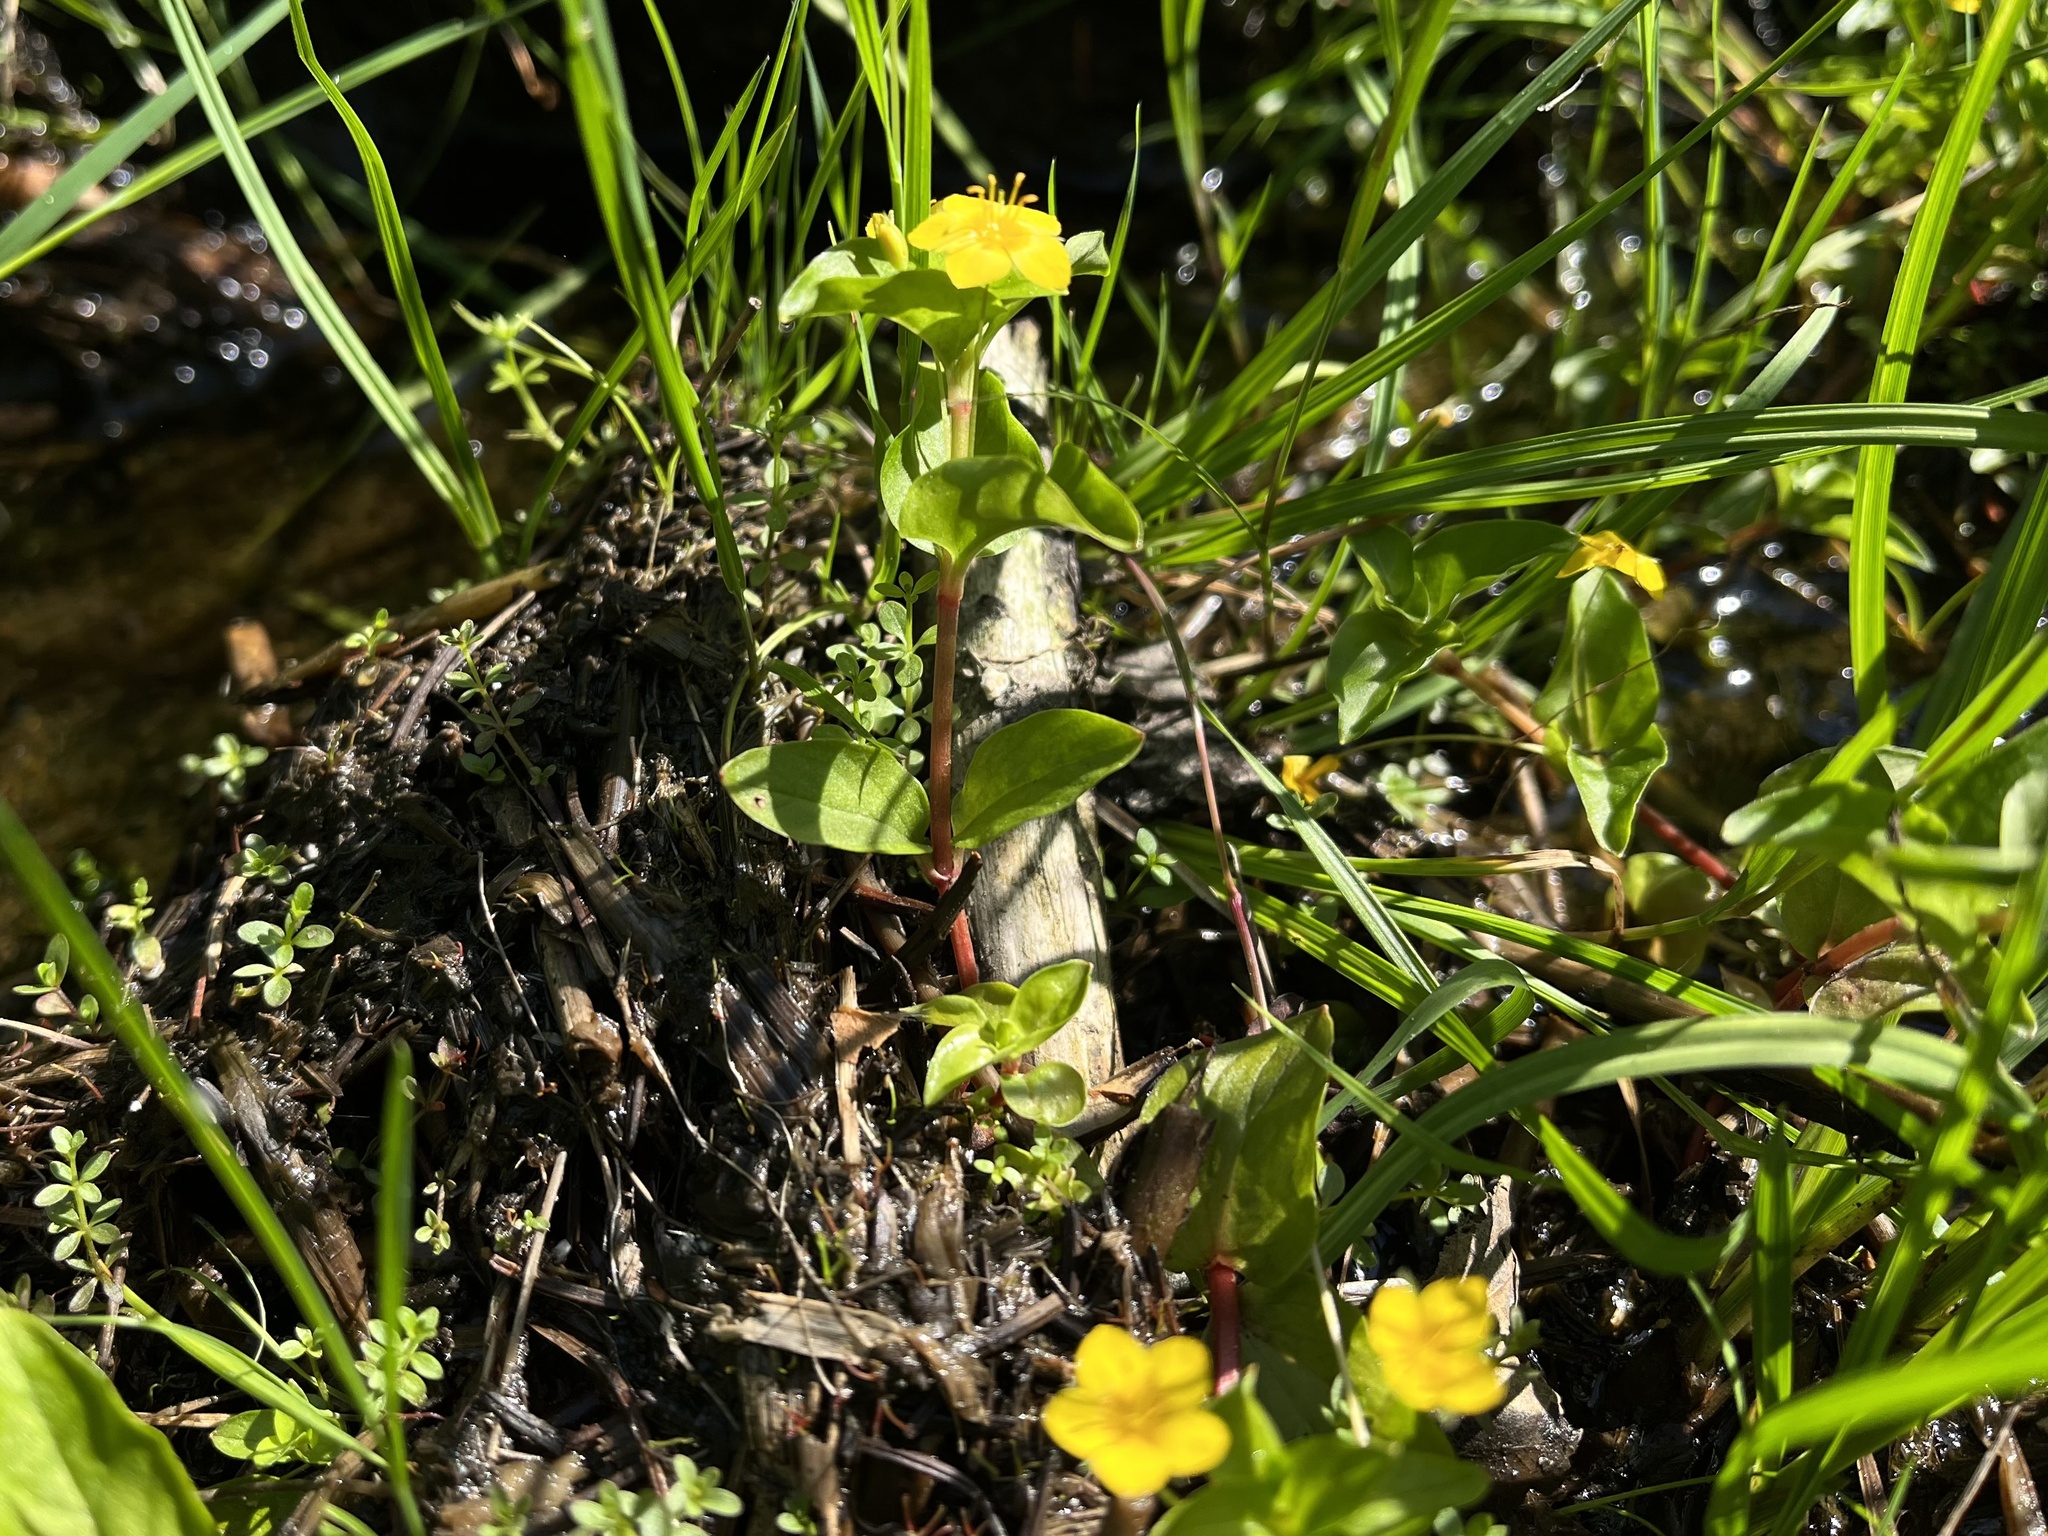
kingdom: Plantae
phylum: Tracheophyta
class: Magnoliopsida
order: Ericales
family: Primulaceae
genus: Lysimachia
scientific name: Lysimachia nemorum
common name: Yellow pimpernel
